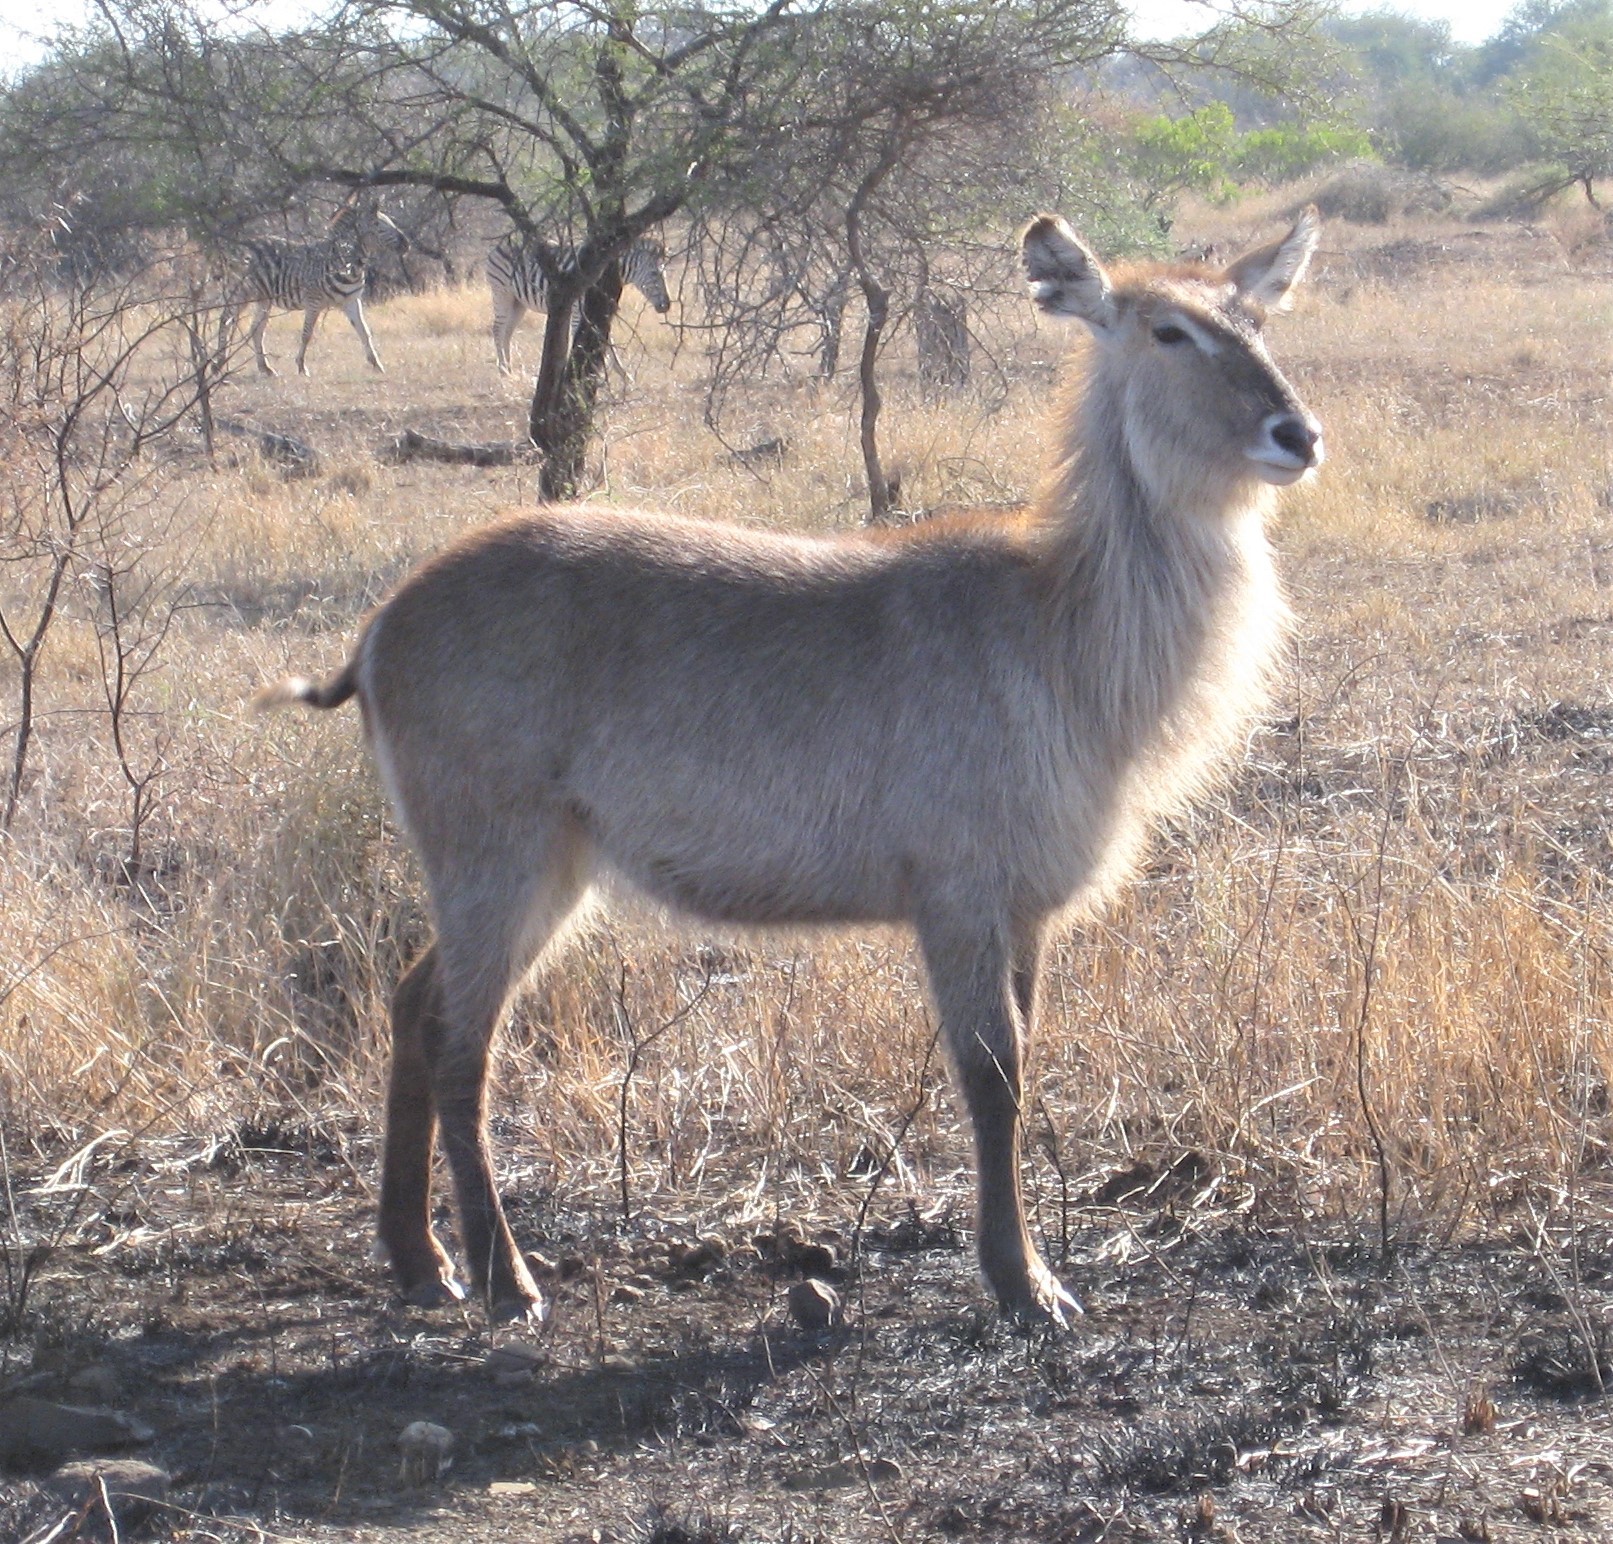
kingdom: Animalia
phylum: Chordata
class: Mammalia
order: Artiodactyla
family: Bovidae
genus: Kobus
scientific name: Kobus ellipsiprymnus
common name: Waterbuck
